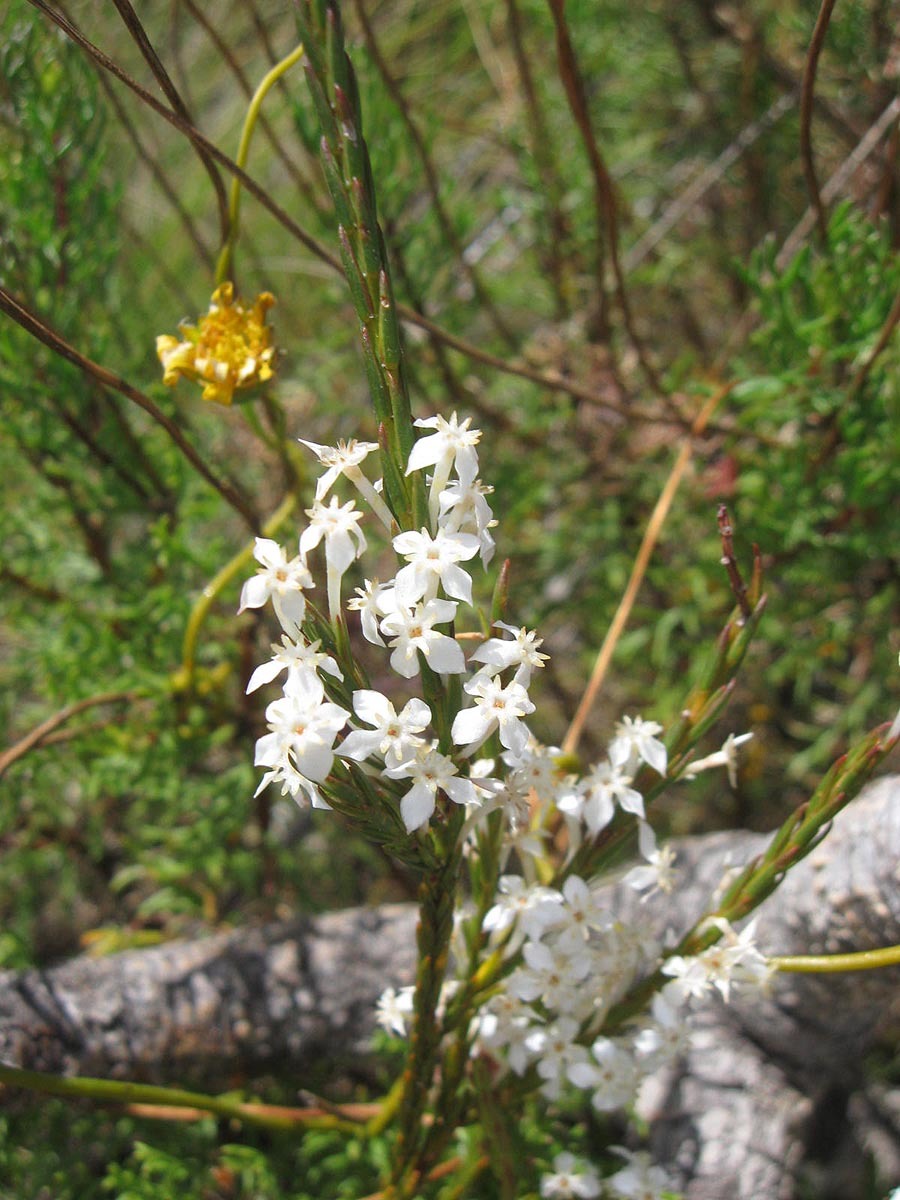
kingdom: Plantae
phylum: Tracheophyta
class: Magnoliopsida
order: Malvales
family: Thymelaeaceae
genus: Struthiola
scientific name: Struthiola dodecandra
